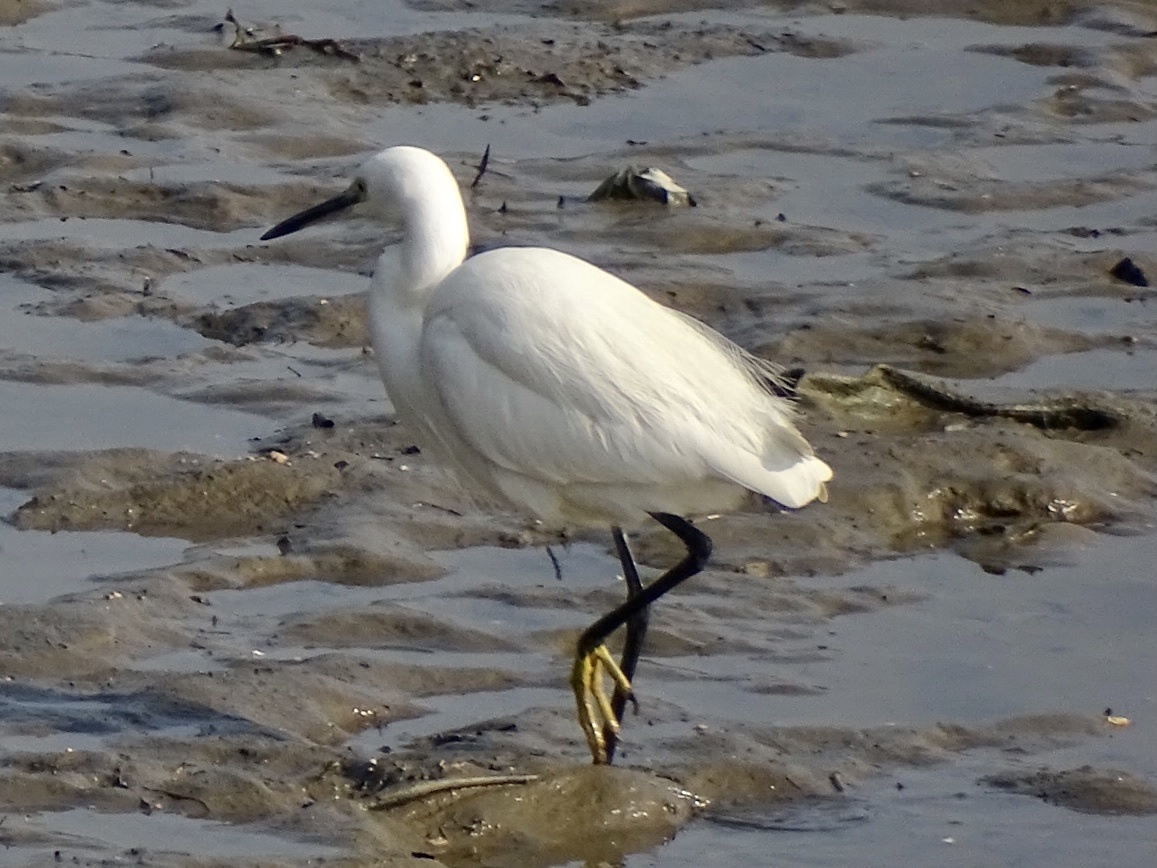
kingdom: Animalia
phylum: Chordata
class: Aves
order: Pelecaniformes
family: Ardeidae
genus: Egretta
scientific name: Egretta garzetta
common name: Little egret
